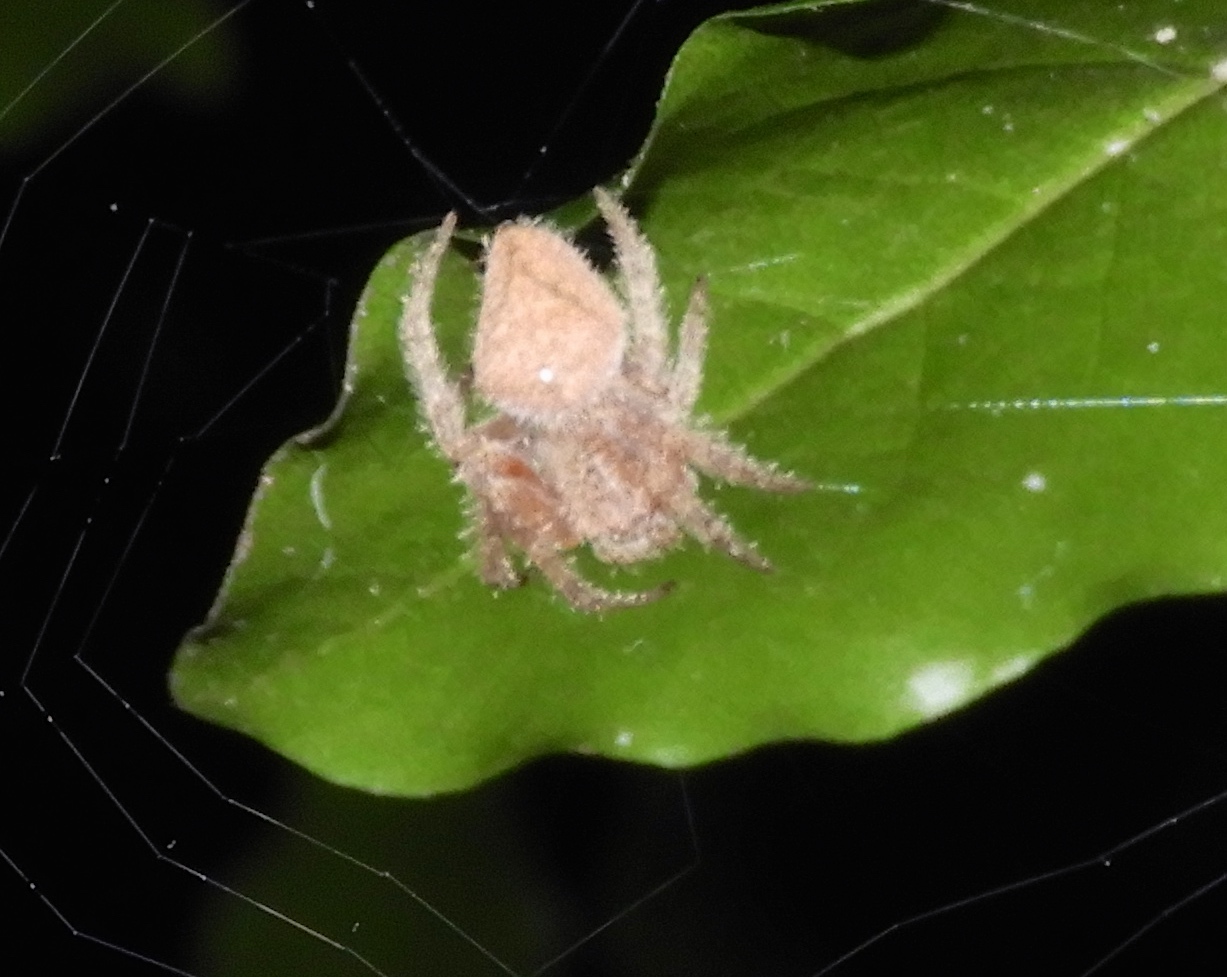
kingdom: Animalia
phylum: Arthropoda
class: Arachnida
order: Araneae
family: Araneidae
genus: Eriophora
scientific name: Eriophora edax
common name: Orb weavers
